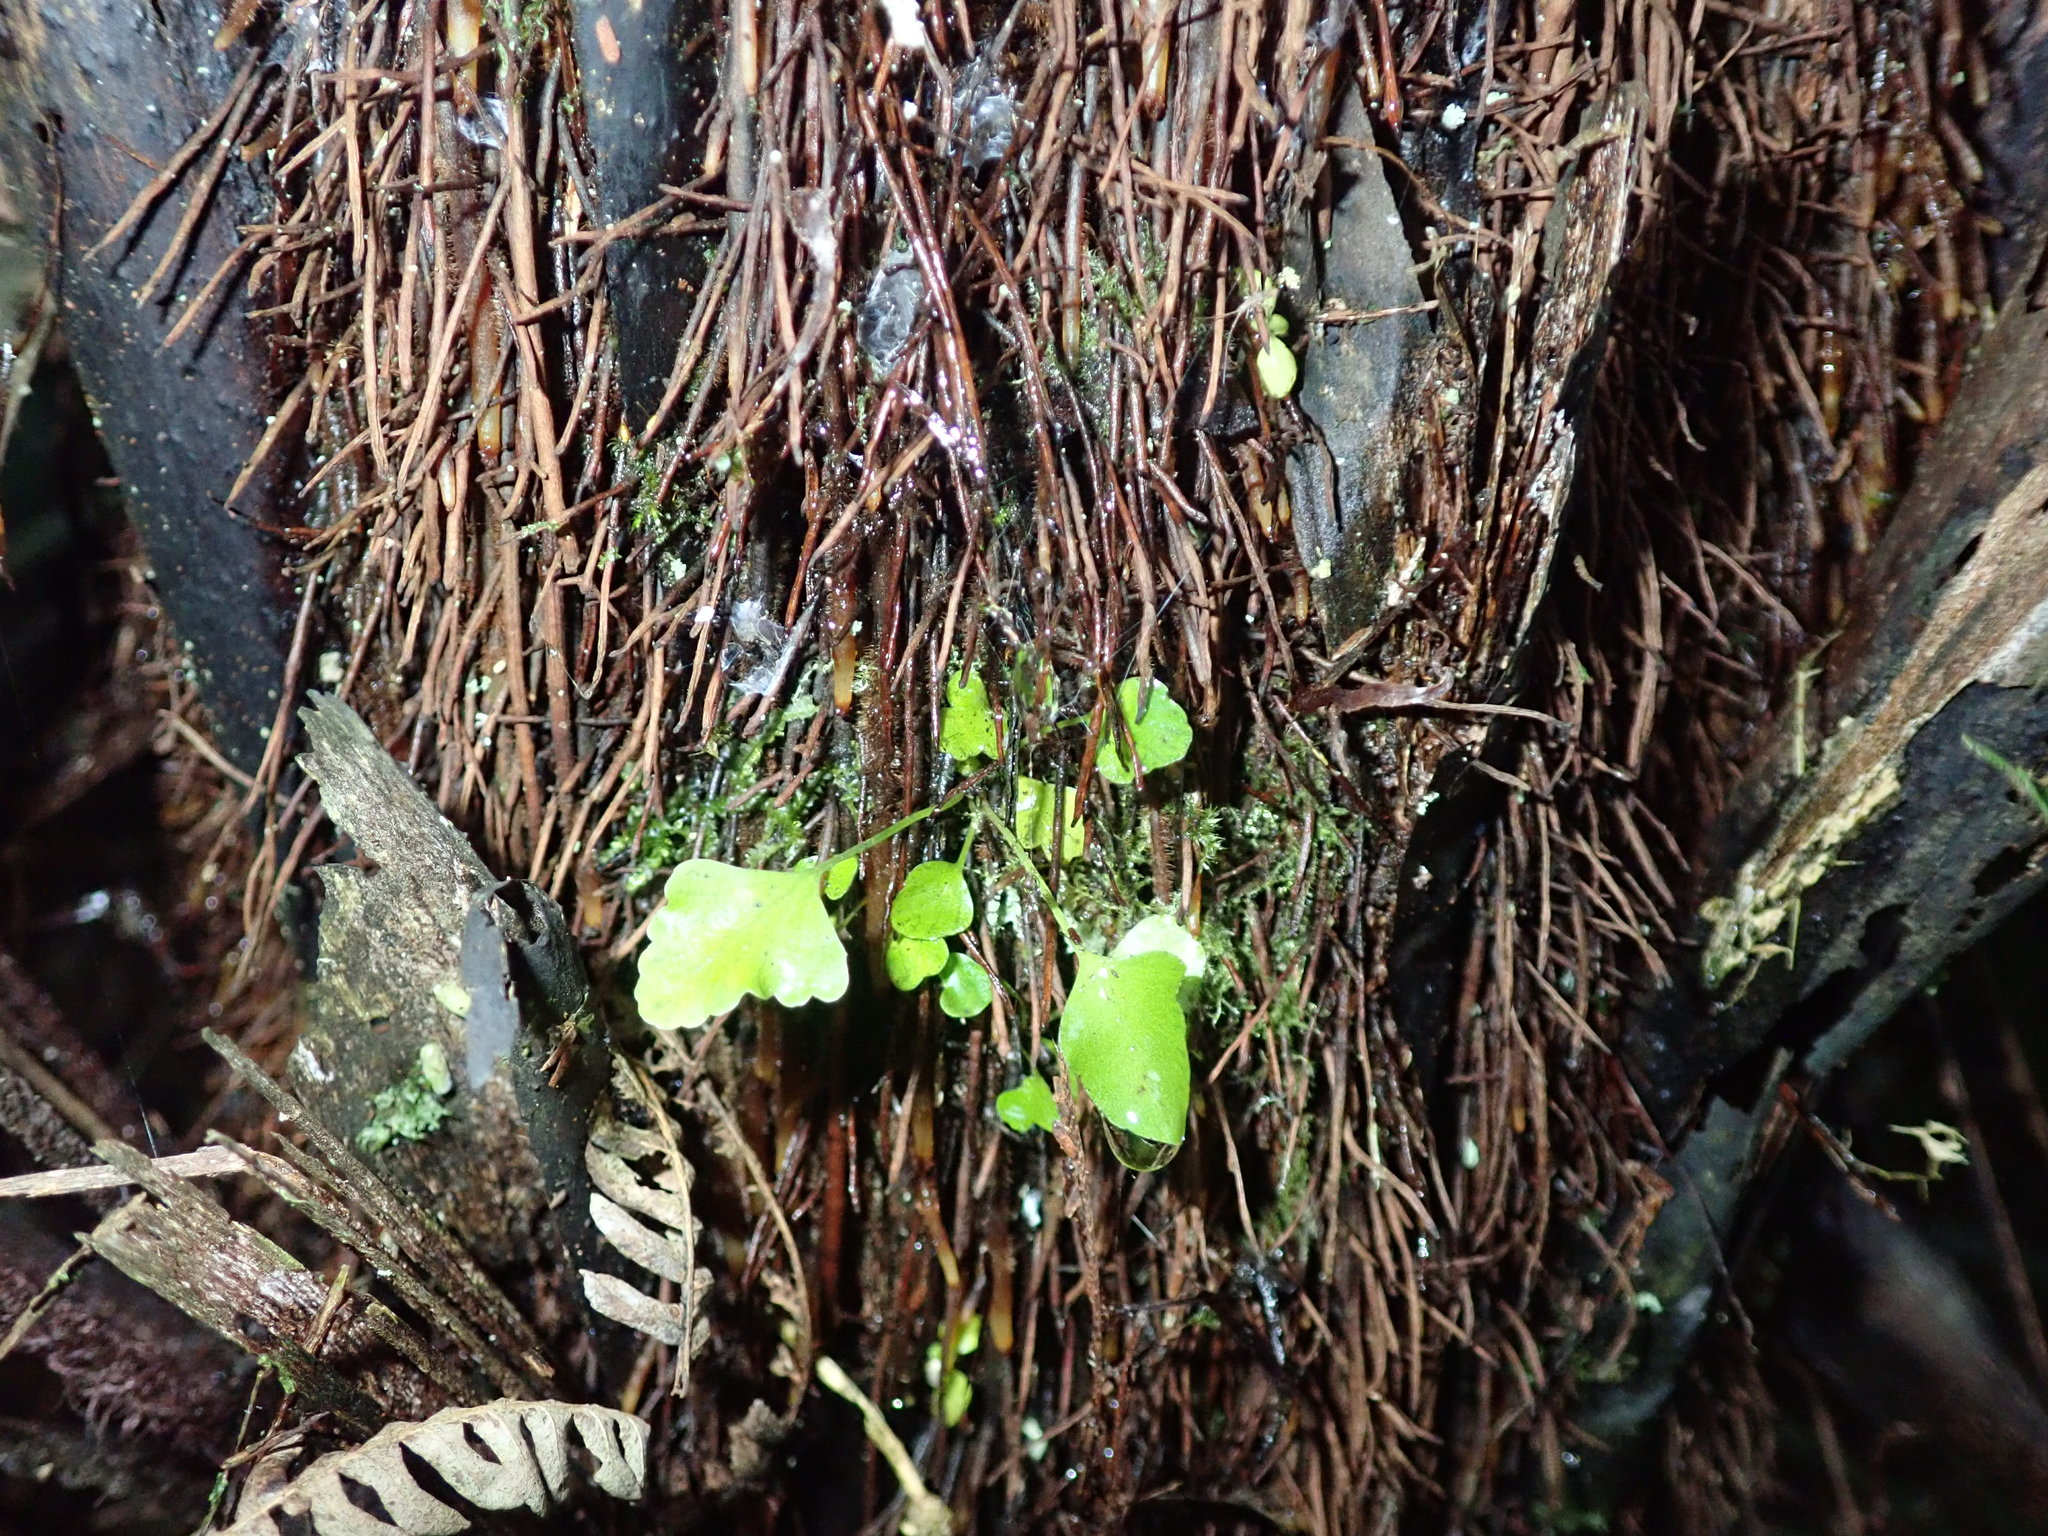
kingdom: Plantae
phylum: Tracheophyta
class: Polypodiopsida
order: Polypodiales
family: Aspleniaceae
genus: Asplenium
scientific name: Asplenium oblongifolium
